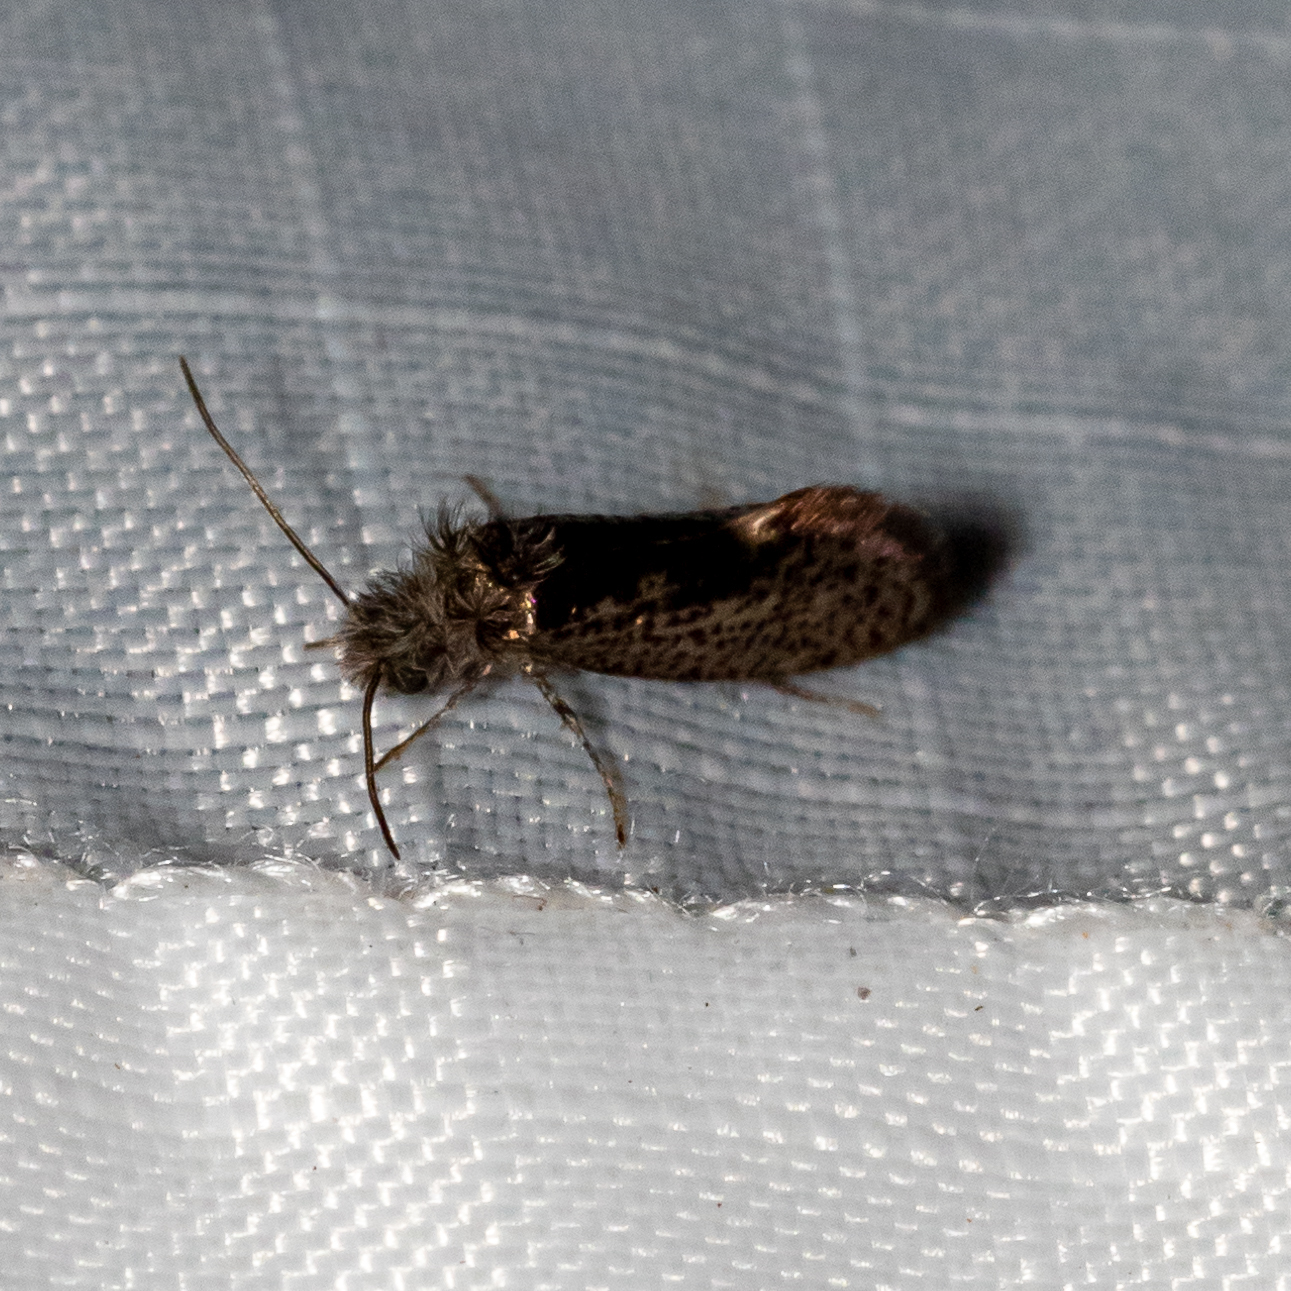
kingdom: Animalia
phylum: Arthropoda
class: Insecta
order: Lepidoptera
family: Eriocraniidae
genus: Dyseriocrania
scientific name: Dyseriocrania griseocapitella
